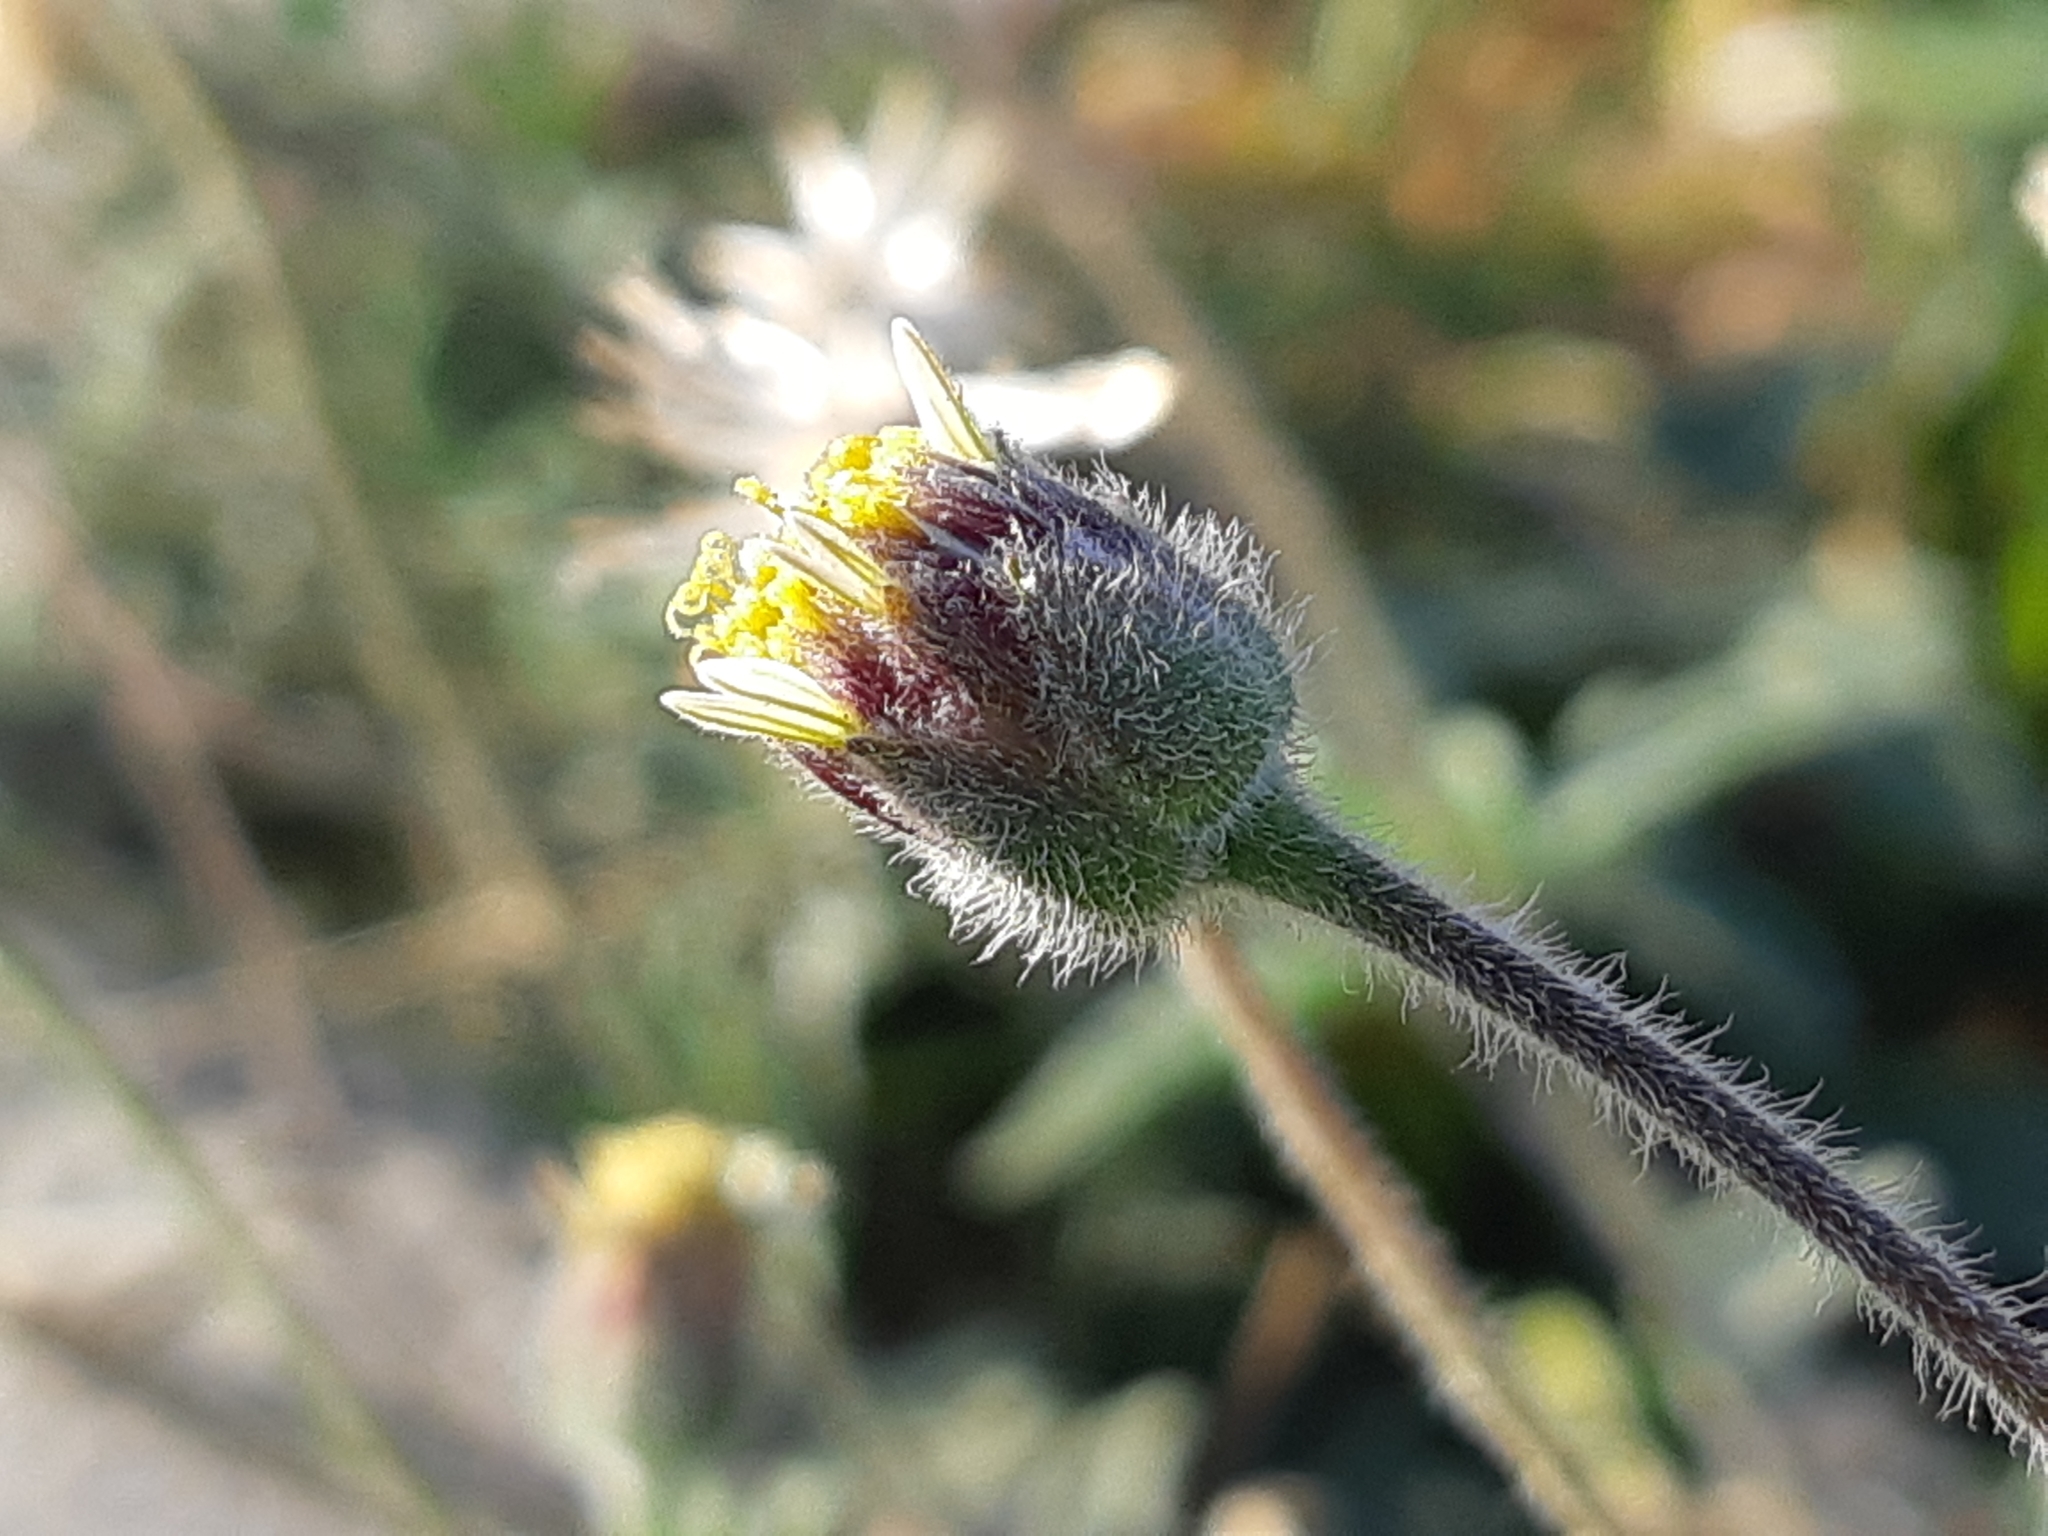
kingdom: Plantae
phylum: Tracheophyta
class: Magnoliopsida
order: Asterales
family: Asteraceae
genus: Tridax
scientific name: Tridax procumbens
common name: Coatbuttons
